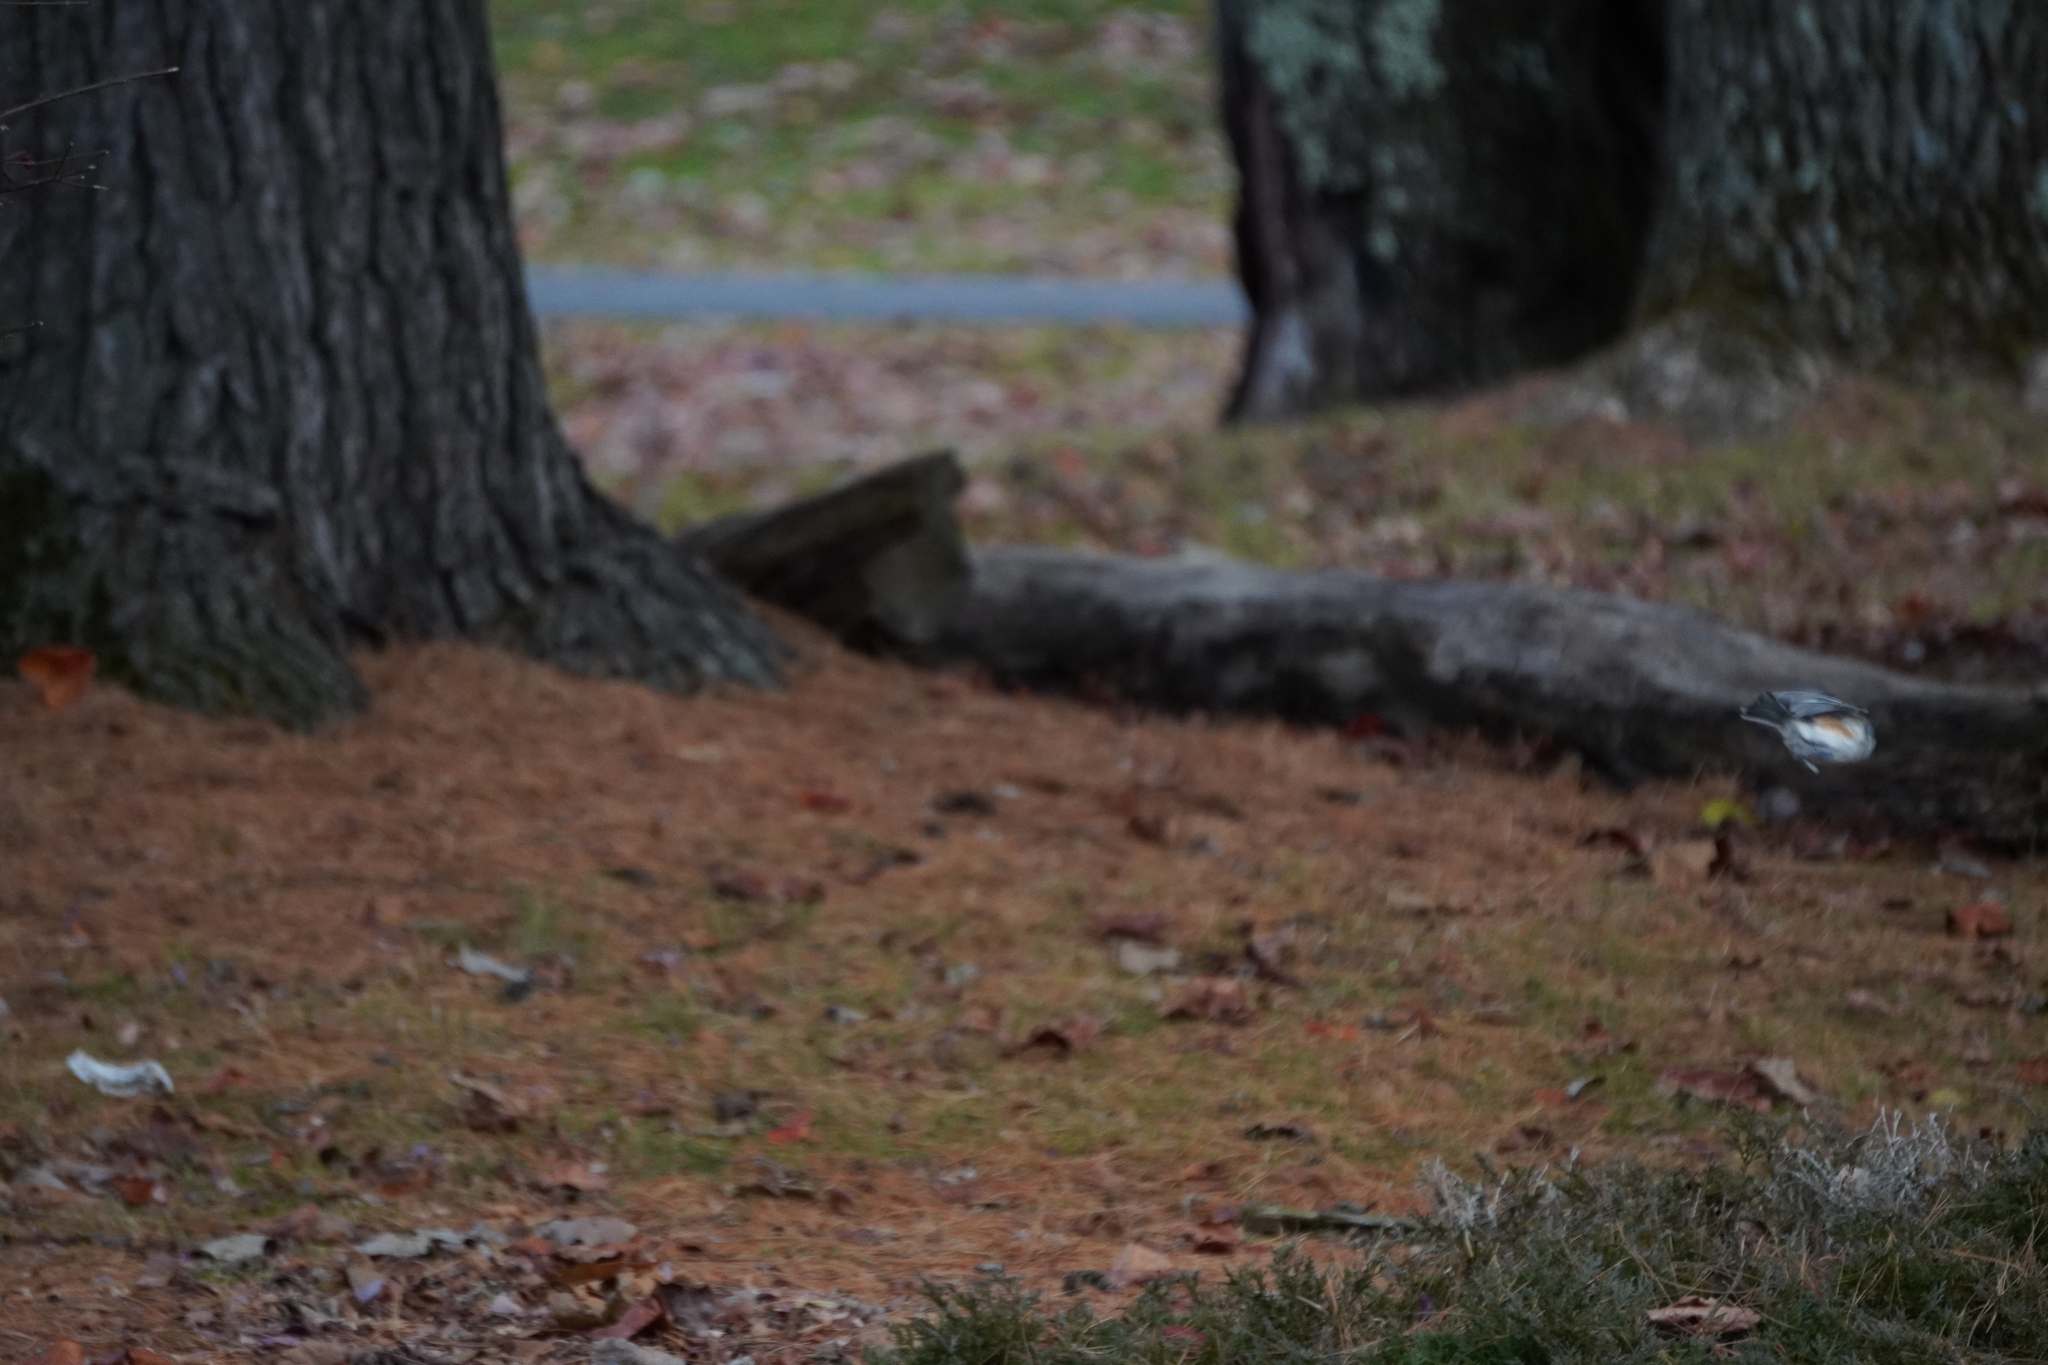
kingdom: Animalia
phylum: Chordata
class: Aves
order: Passeriformes
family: Paridae
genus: Baeolophus
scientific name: Baeolophus bicolor
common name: Tufted titmouse
